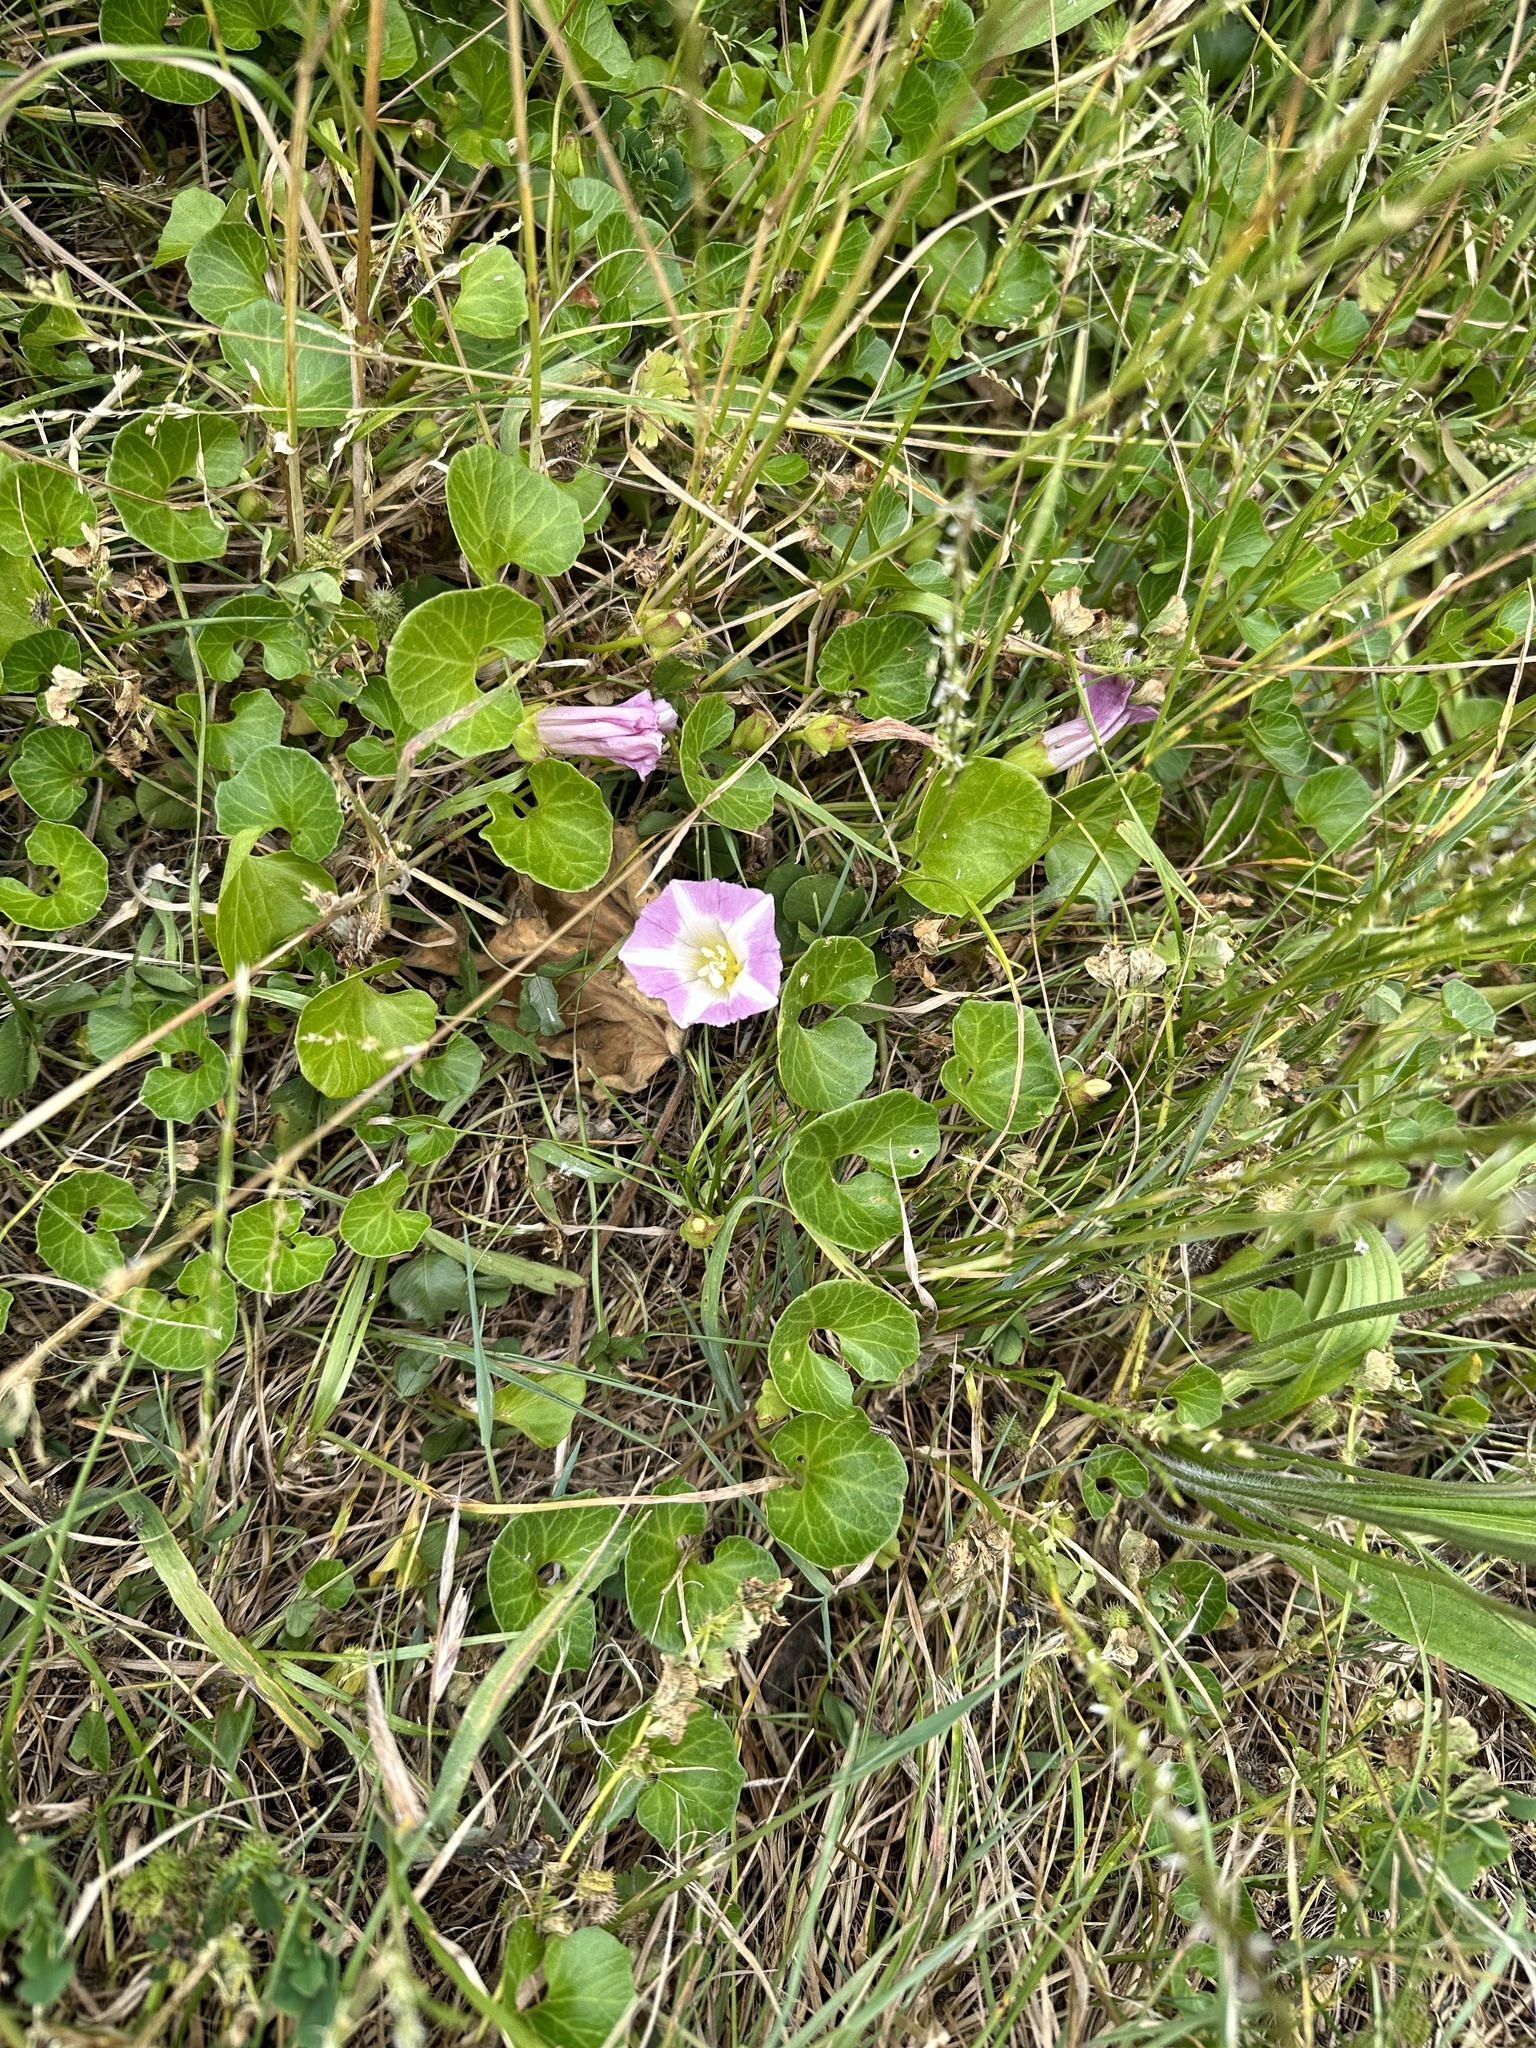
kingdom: Plantae
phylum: Tracheophyta
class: Magnoliopsida
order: Solanales
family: Convolvulaceae
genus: Calystegia
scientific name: Calystegia soldanella
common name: Sea bindweed
